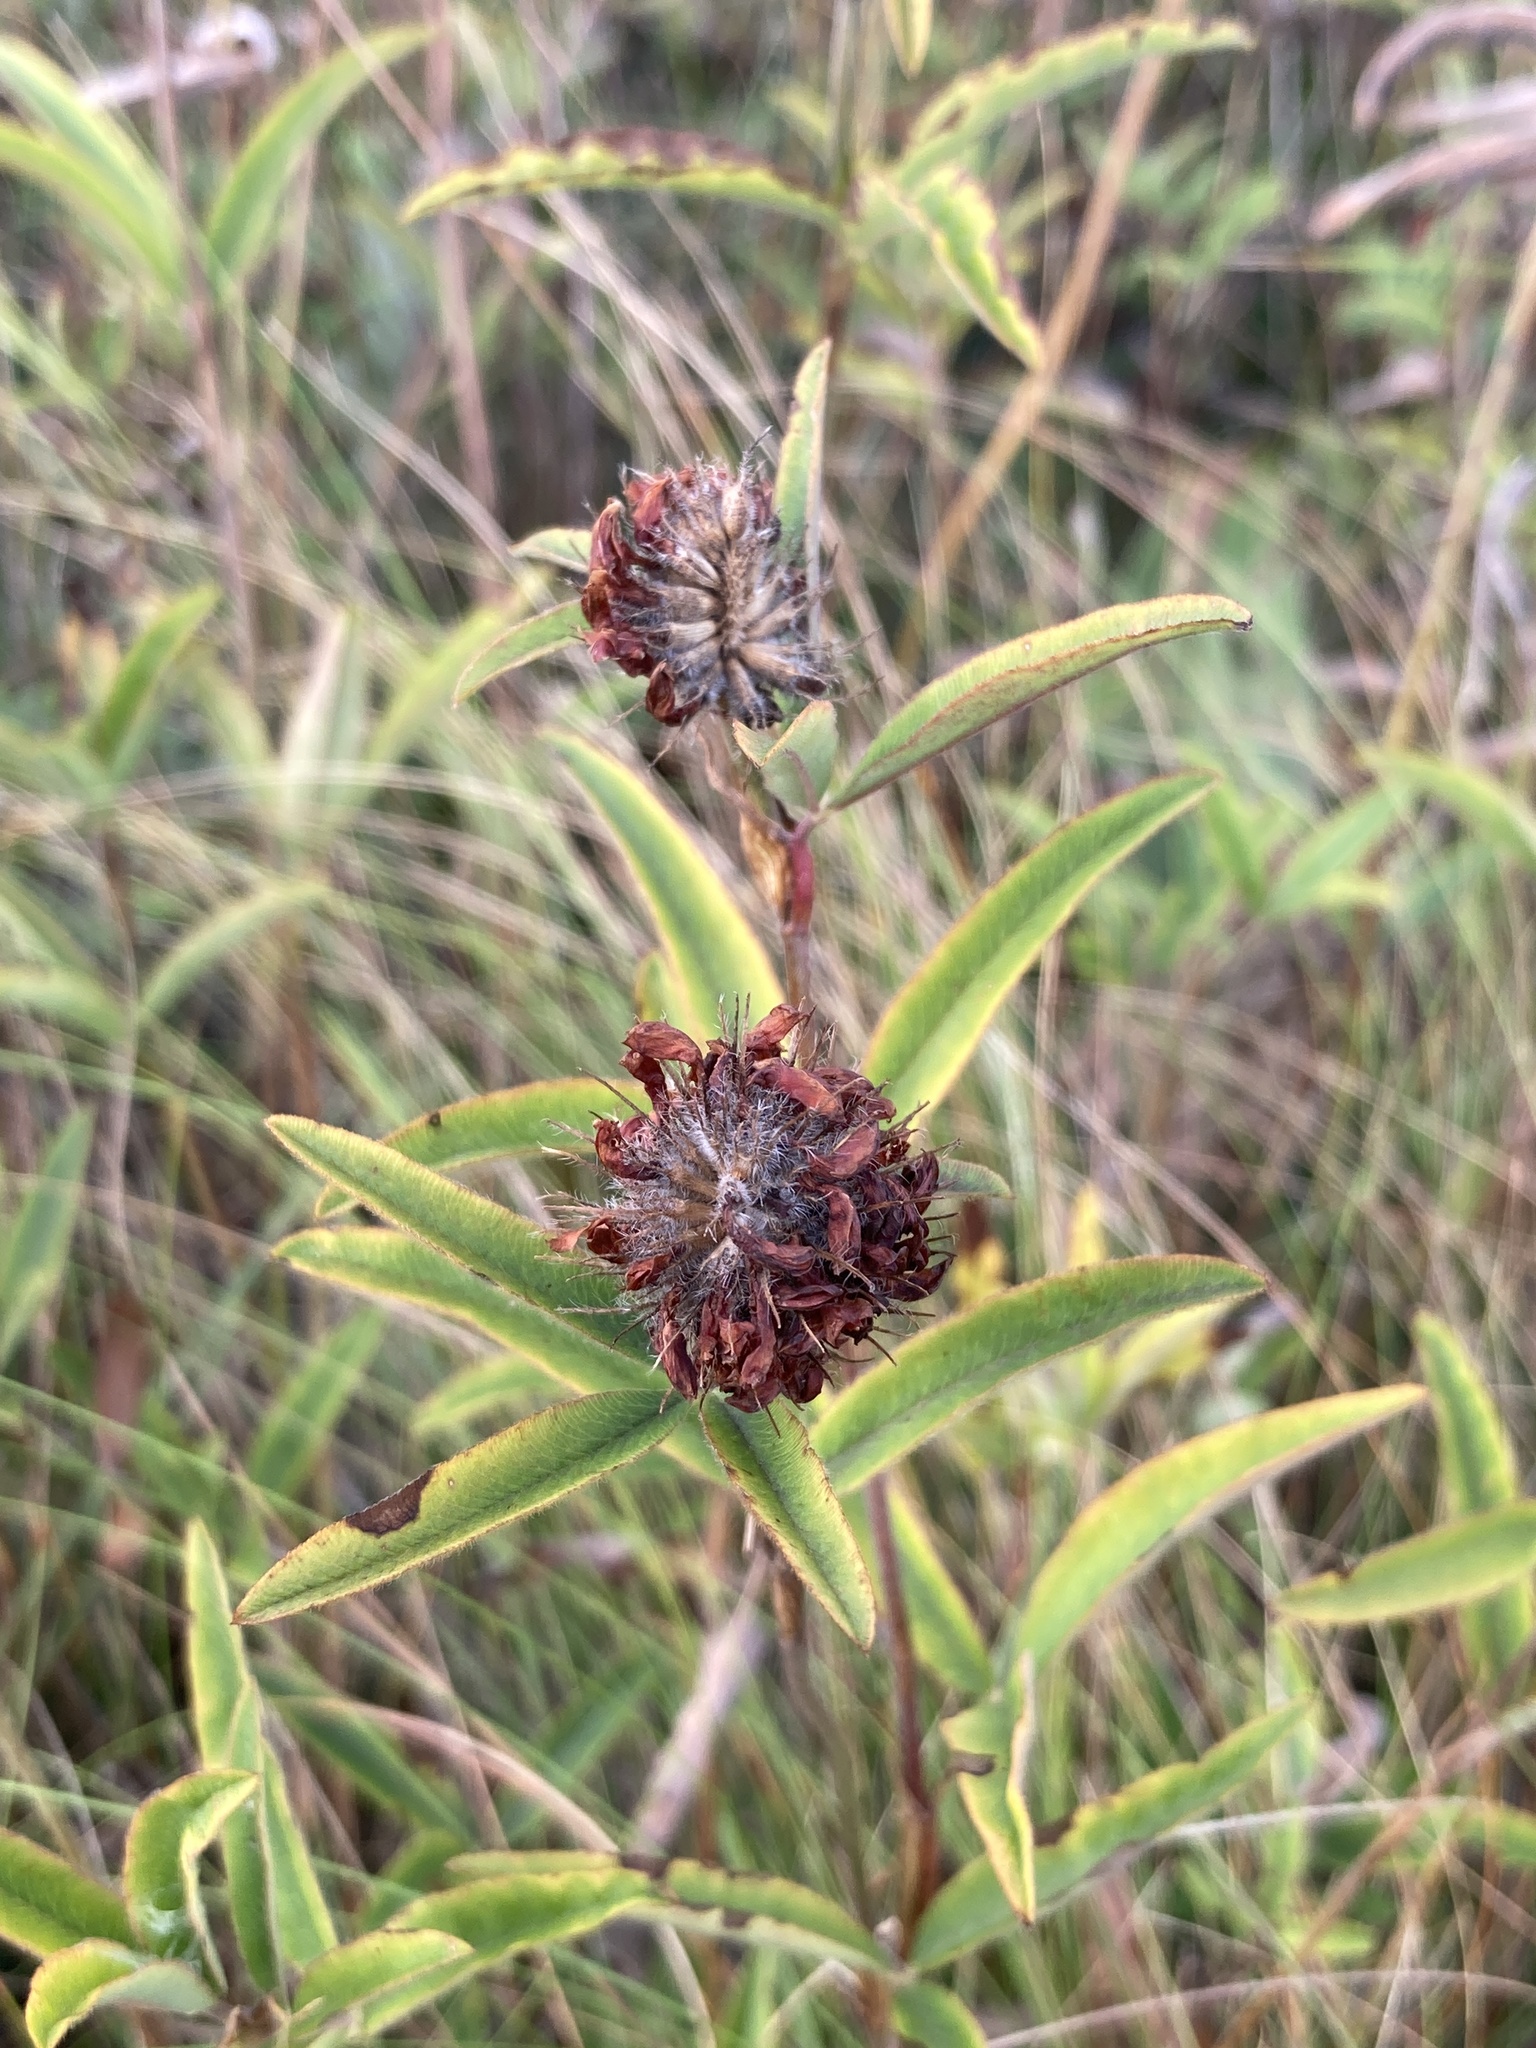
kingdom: Plantae
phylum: Tracheophyta
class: Magnoliopsida
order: Fabales
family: Fabaceae
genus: Trifolium
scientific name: Trifolium alpestre
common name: Owl-head clover
